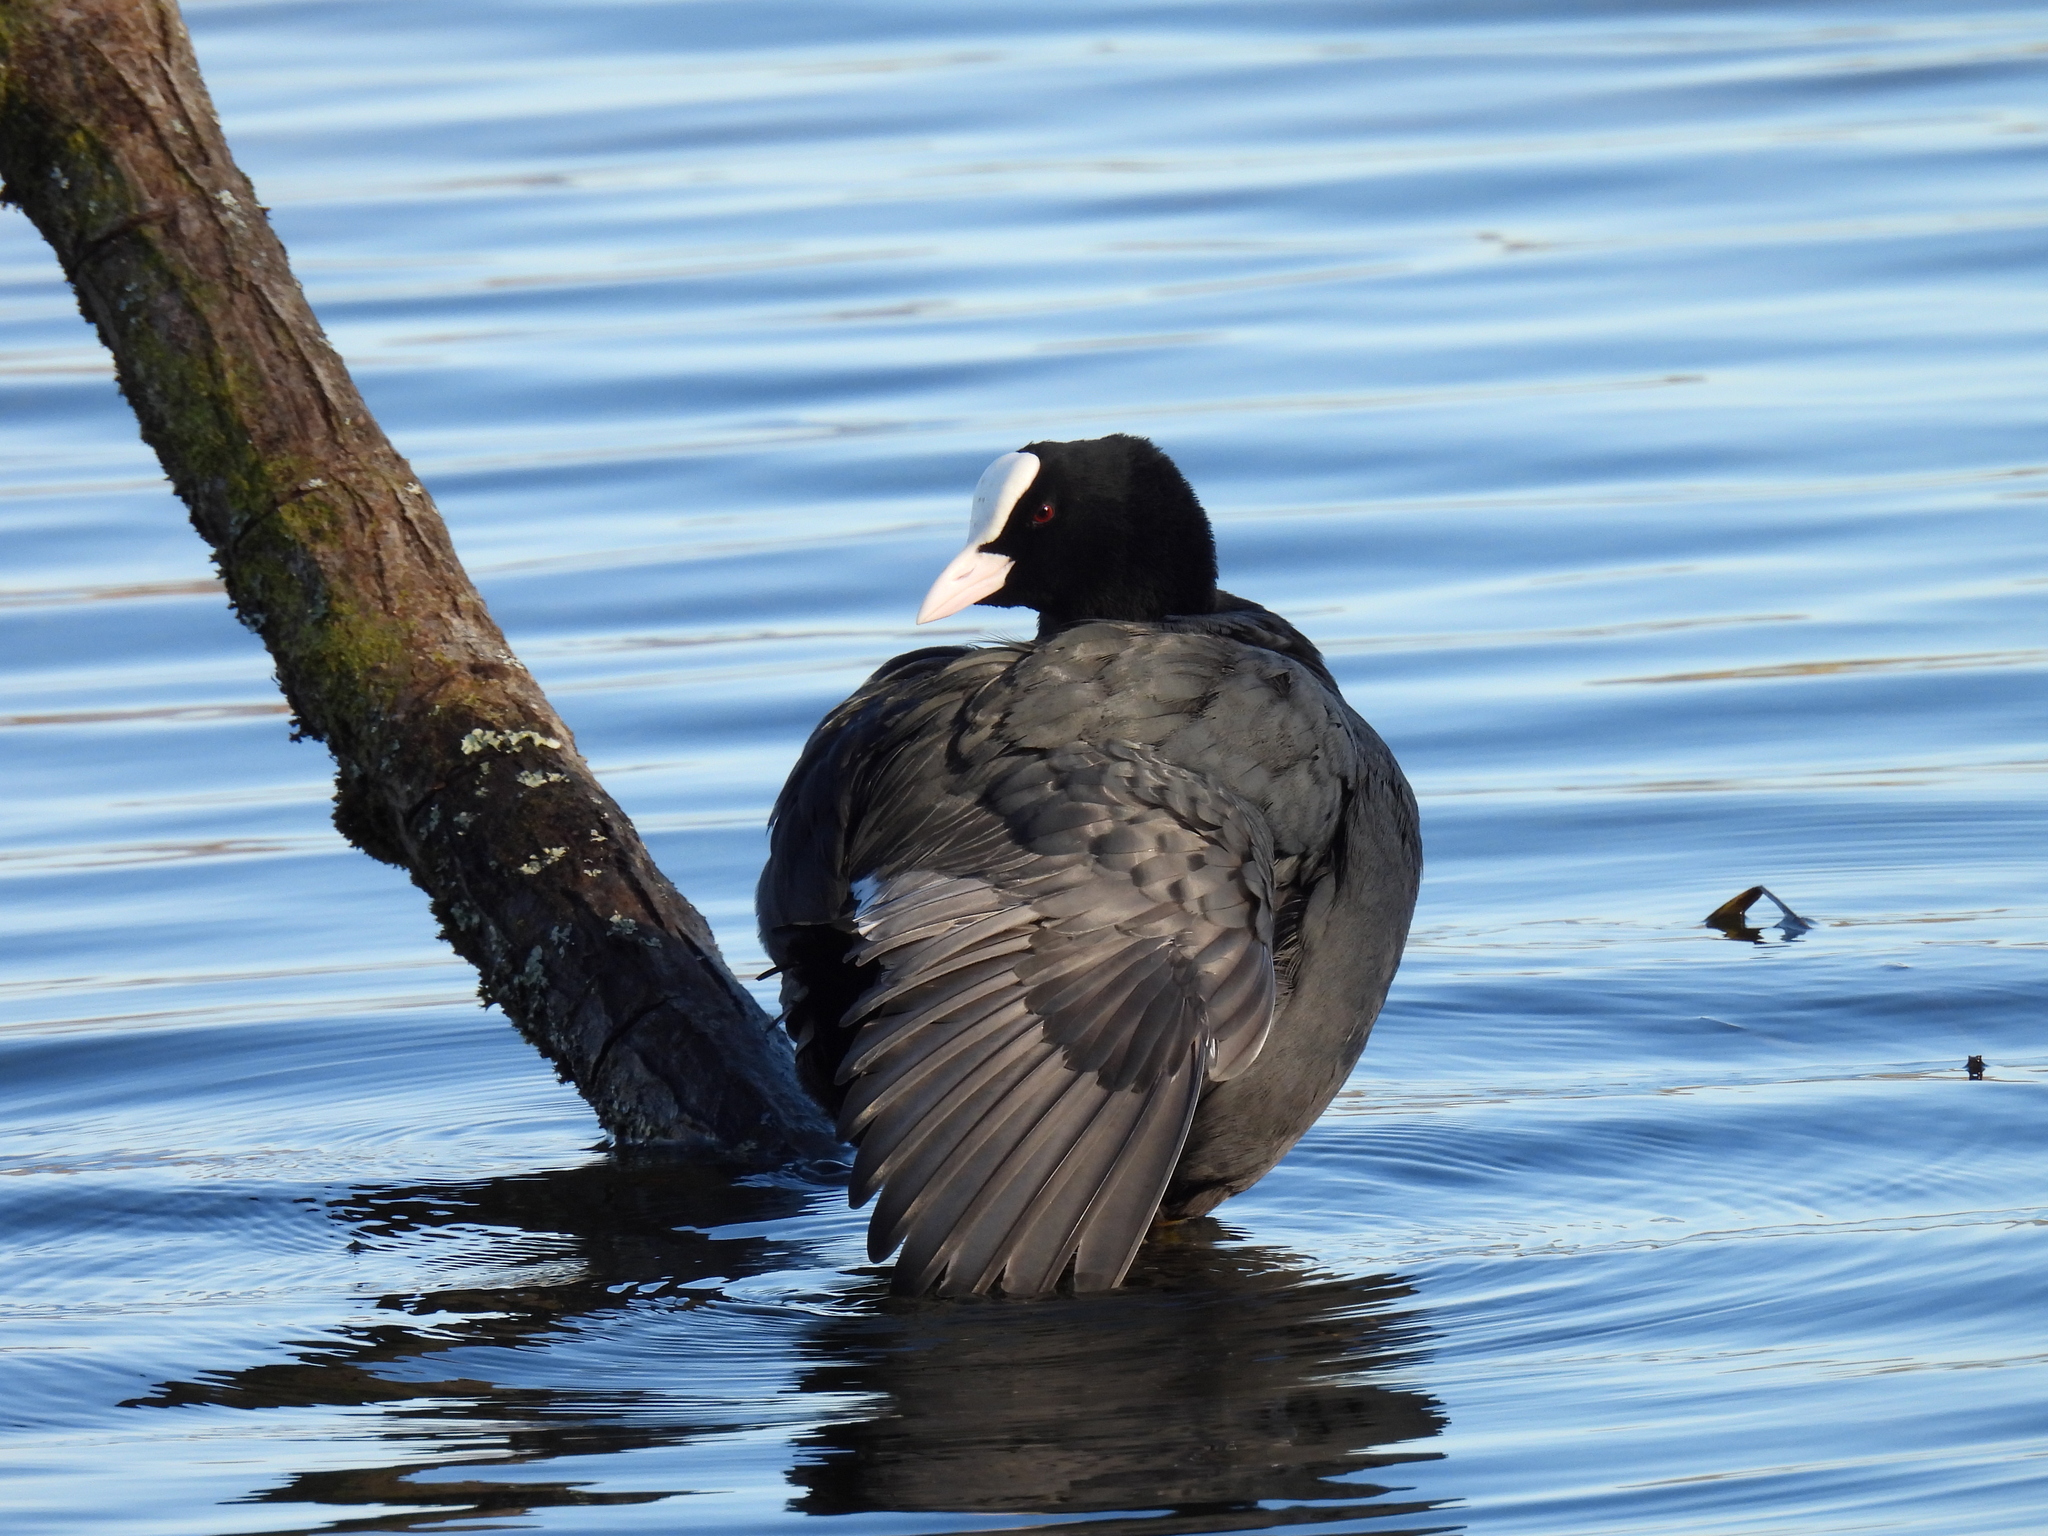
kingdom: Animalia
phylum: Chordata
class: Aves
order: Gruiformes
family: Rallidae
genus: Fulica
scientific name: Fulica atra
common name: Eurasian coot
